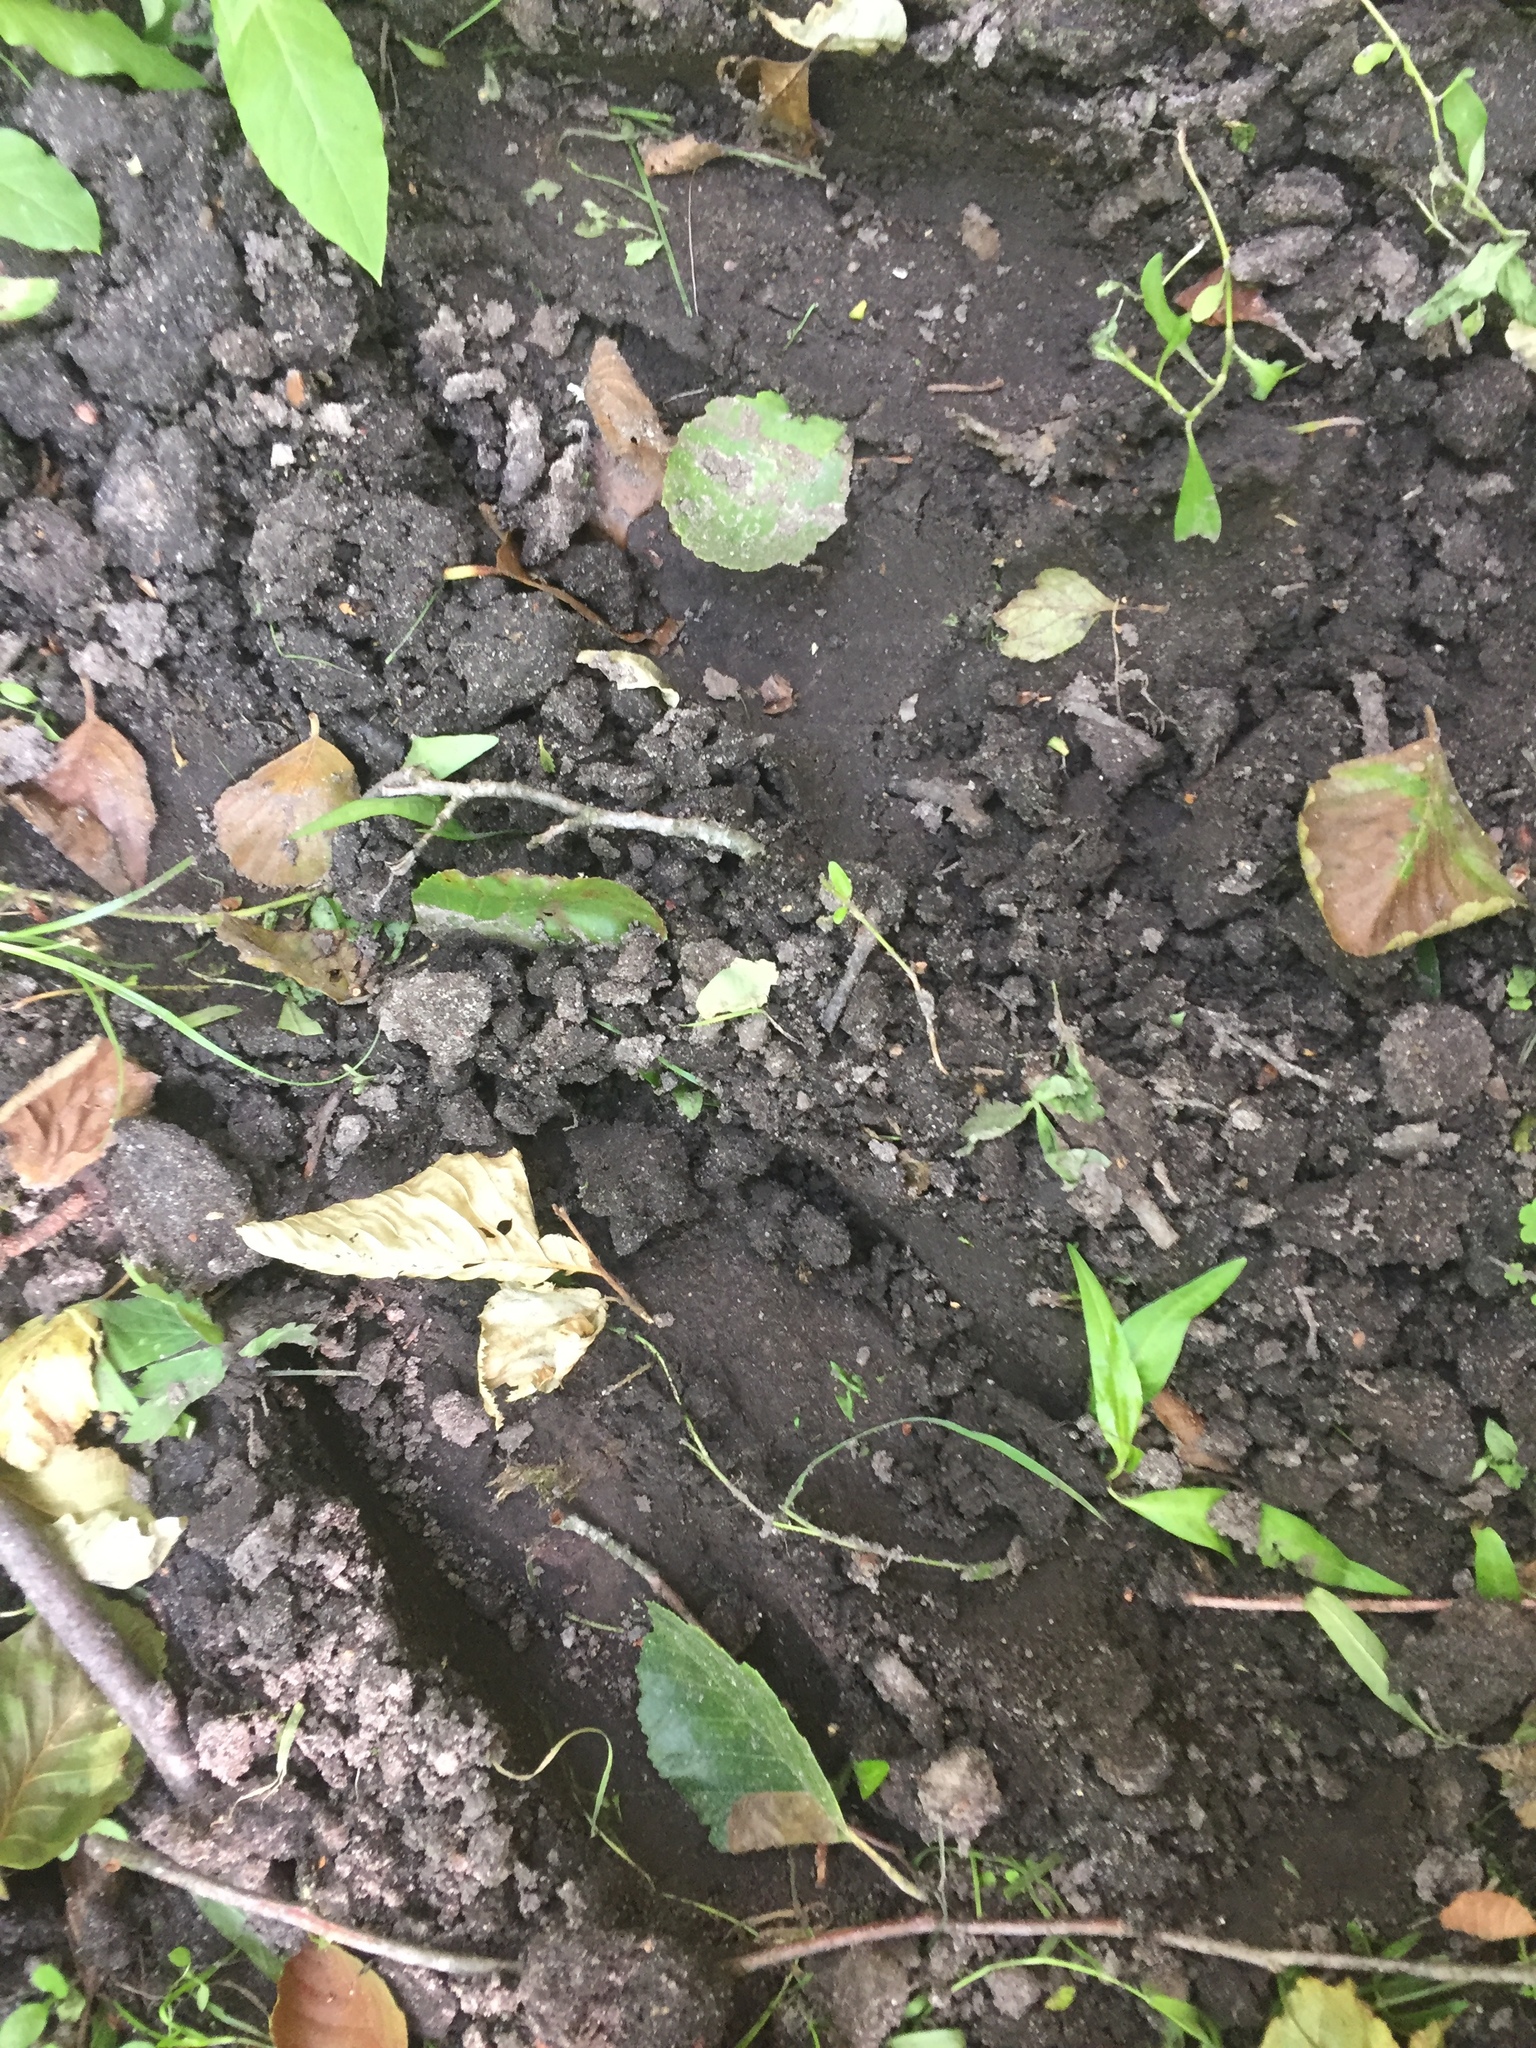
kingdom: Animalia
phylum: Chordata
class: Mammalia
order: Artiodactyla
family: Bovidae
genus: Bison
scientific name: Bison bonasus
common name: European bison
